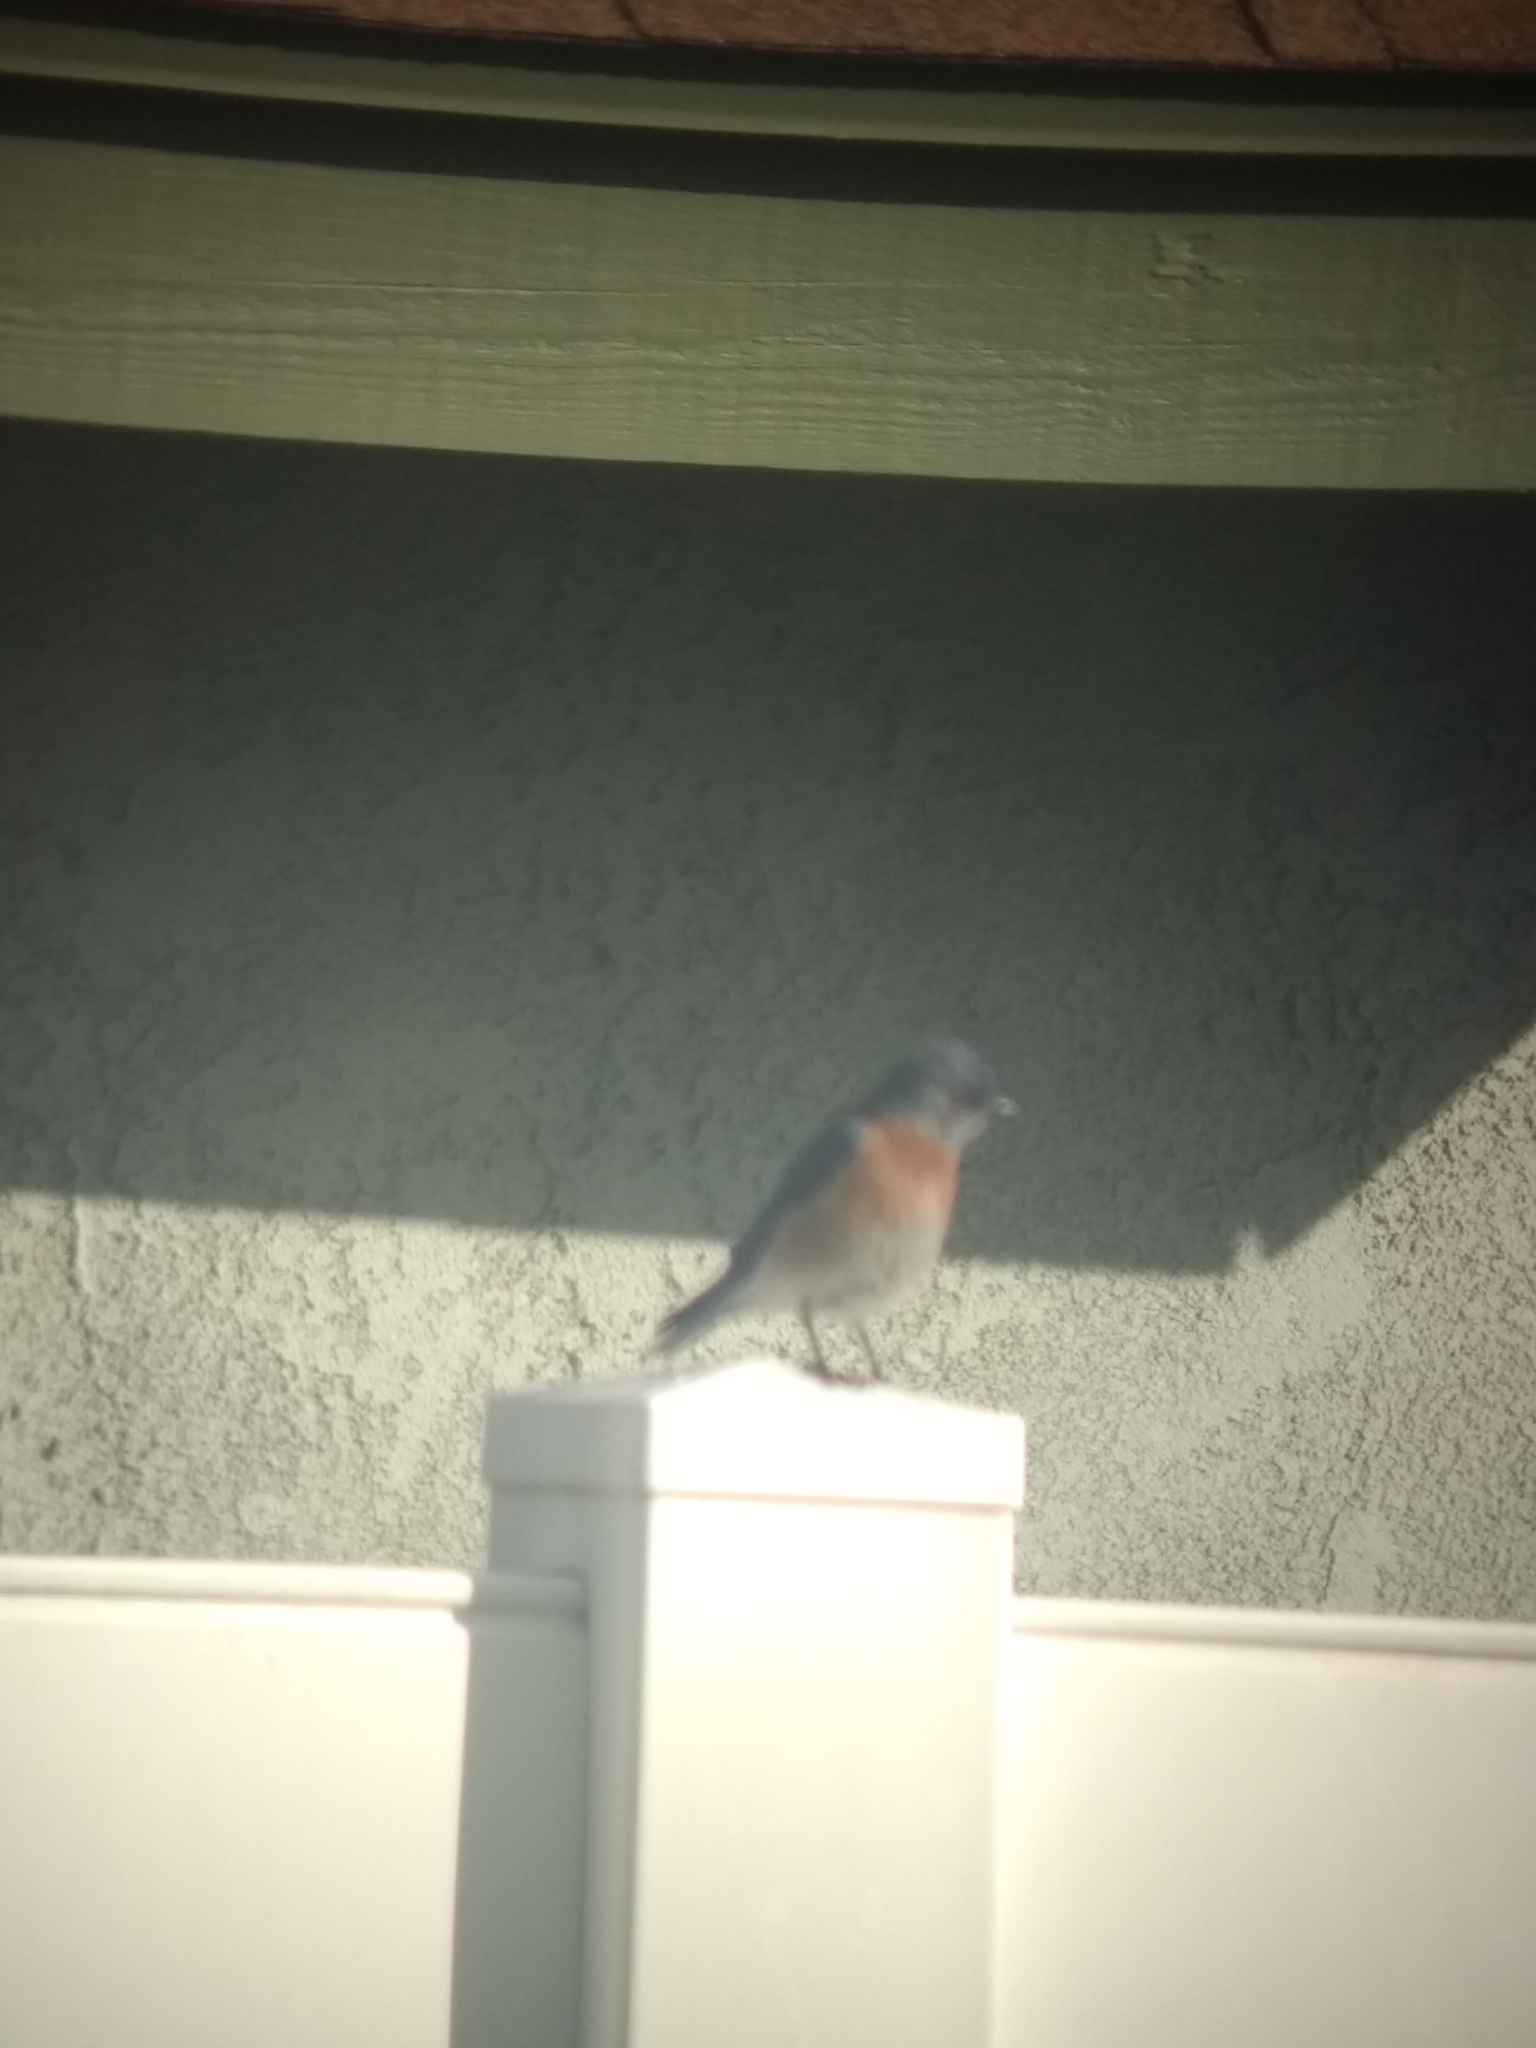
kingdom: Animalia
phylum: Chordata
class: Aves
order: Passeriformes
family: Turdidae
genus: Sialia
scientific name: Sialia mexicana
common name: Western bluebird
